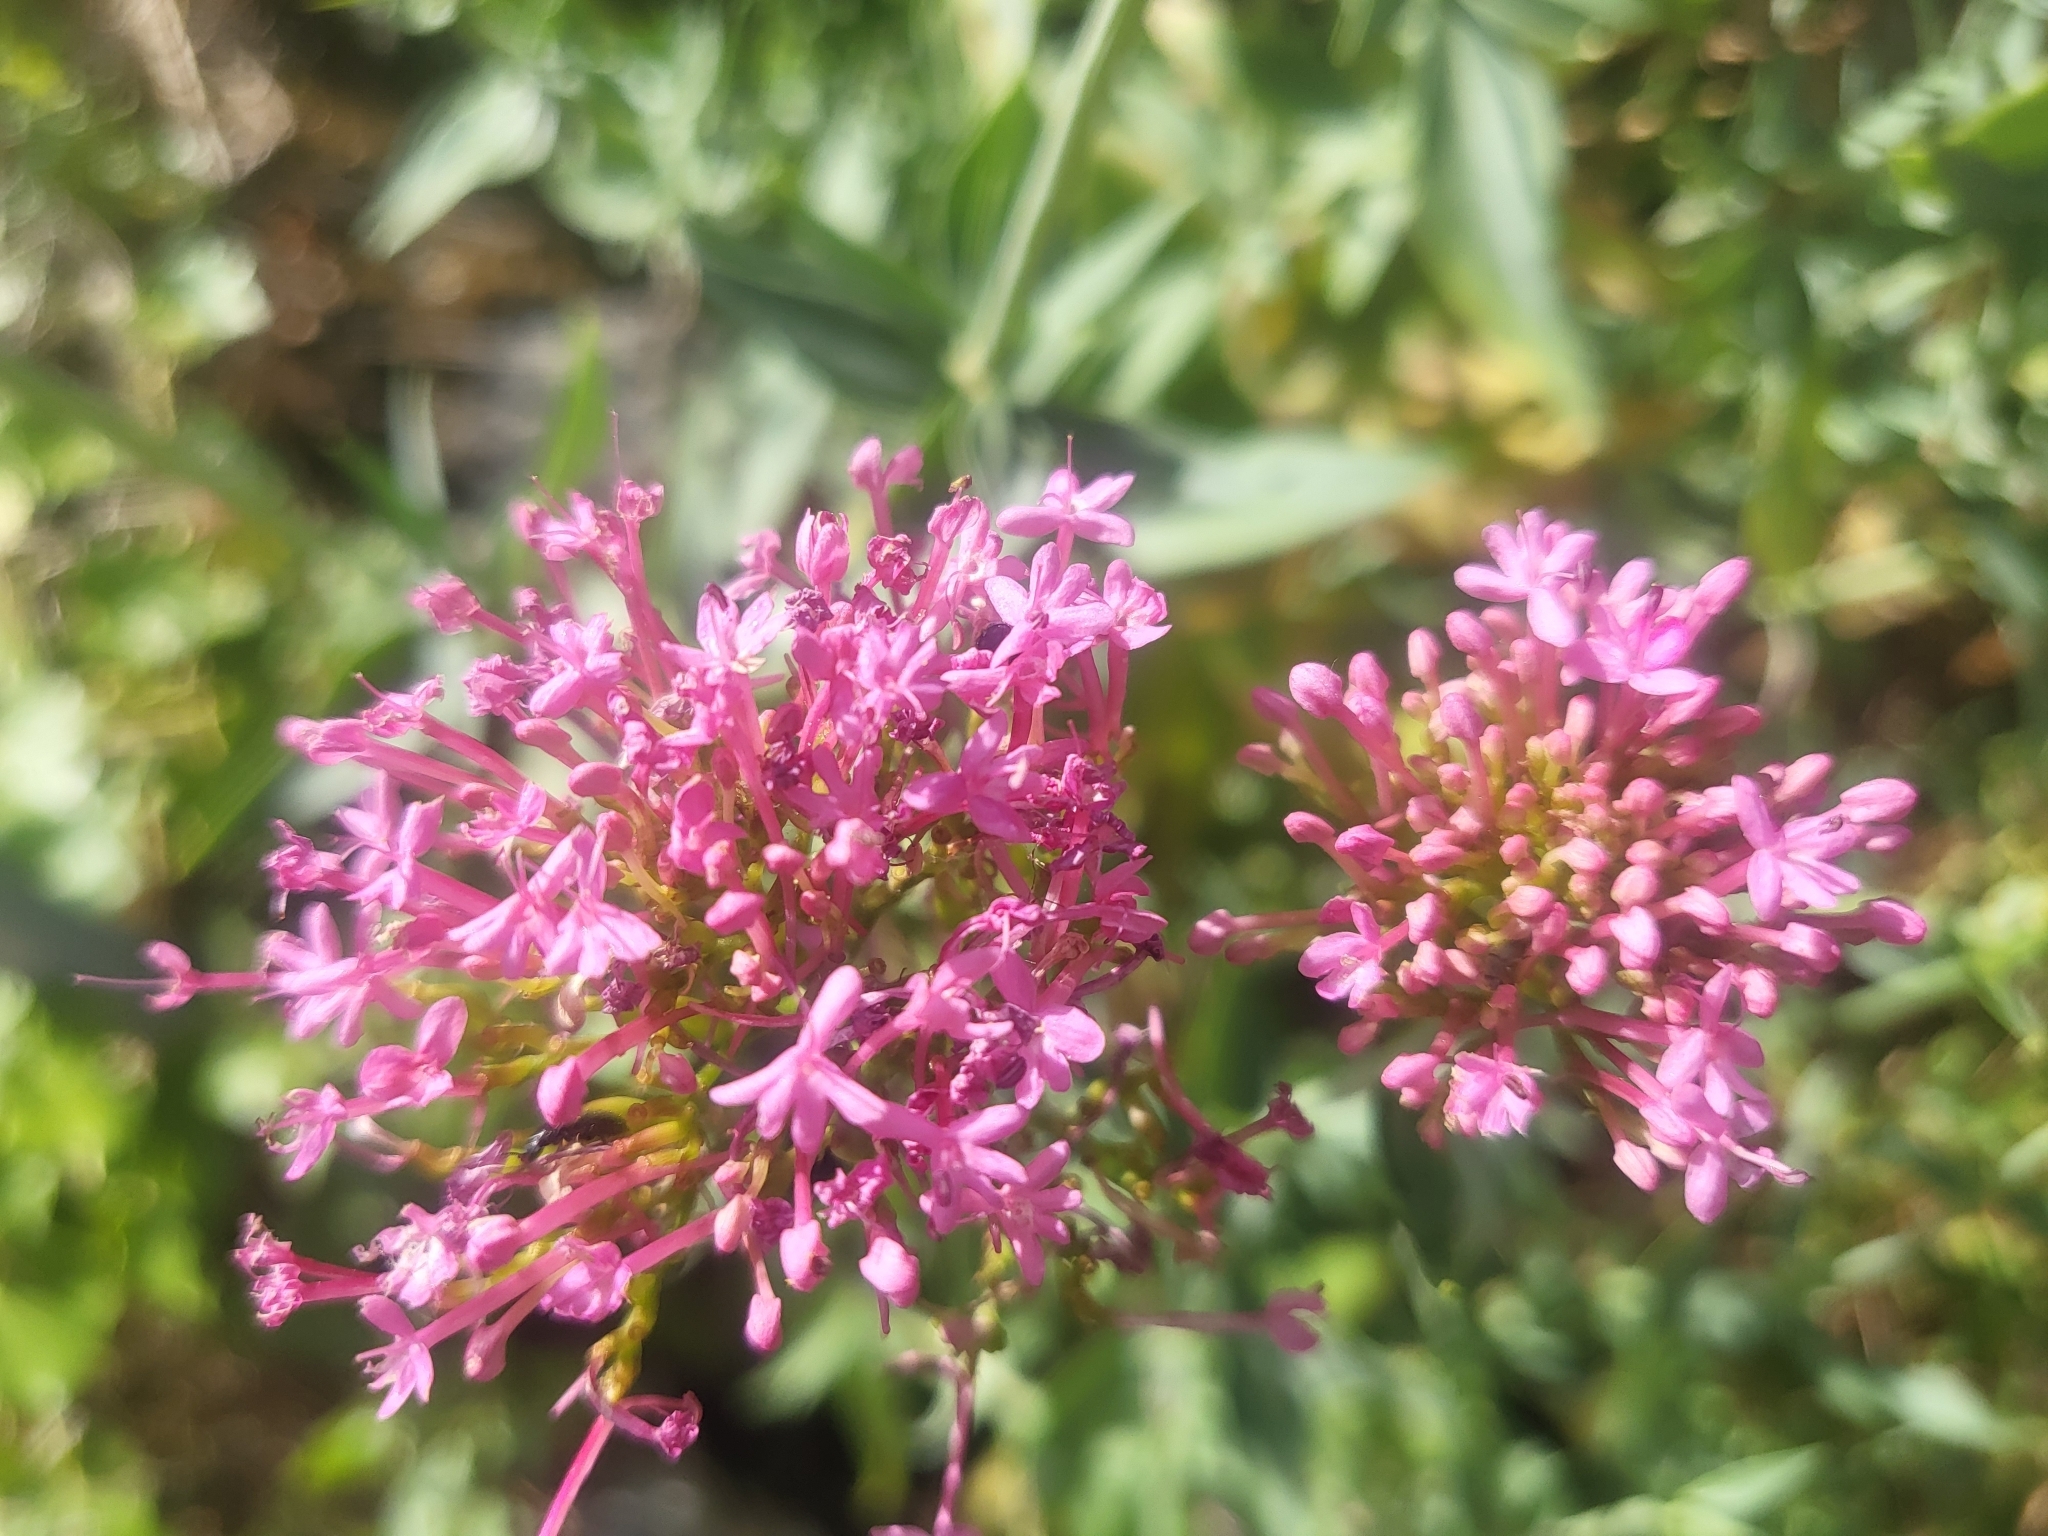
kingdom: Plantae
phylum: Tracheophyta
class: Magnoliopsida
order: Dipsacales
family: Caprifoliaceae
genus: Centranthus
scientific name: Centranthus ruber
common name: Red valerian
